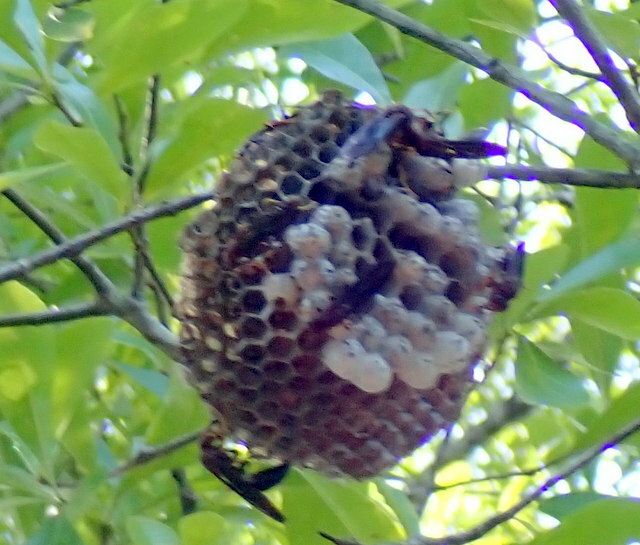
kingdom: Animalia
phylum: Arthropoda
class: Insecta
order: Hymenoptera
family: Eumenidae
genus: Polistes
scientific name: Polistes annularis
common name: Ringed paper wasp
